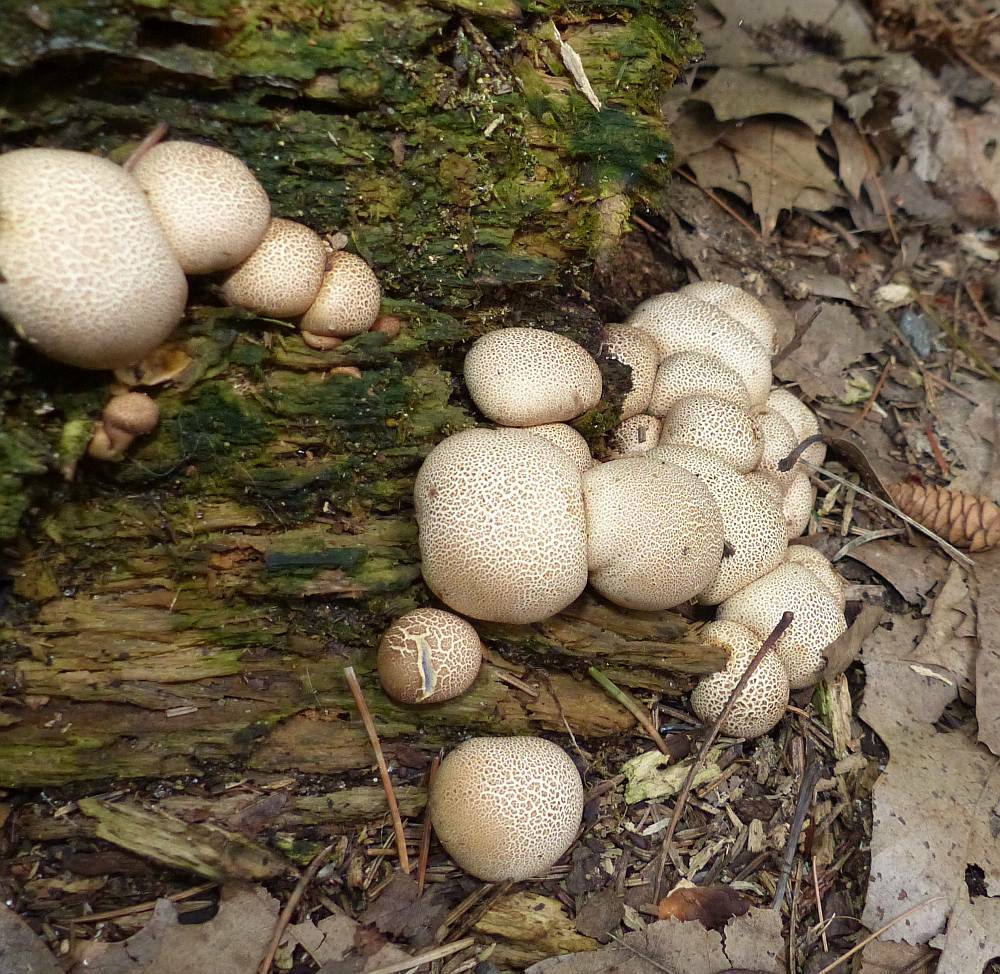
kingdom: Fungi
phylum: Basidiomycota
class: Agaricomycetes
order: Boletales
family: Sclerodermataceae
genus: Scleroderma
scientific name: Scleroderma citrinum
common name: Common earthball
